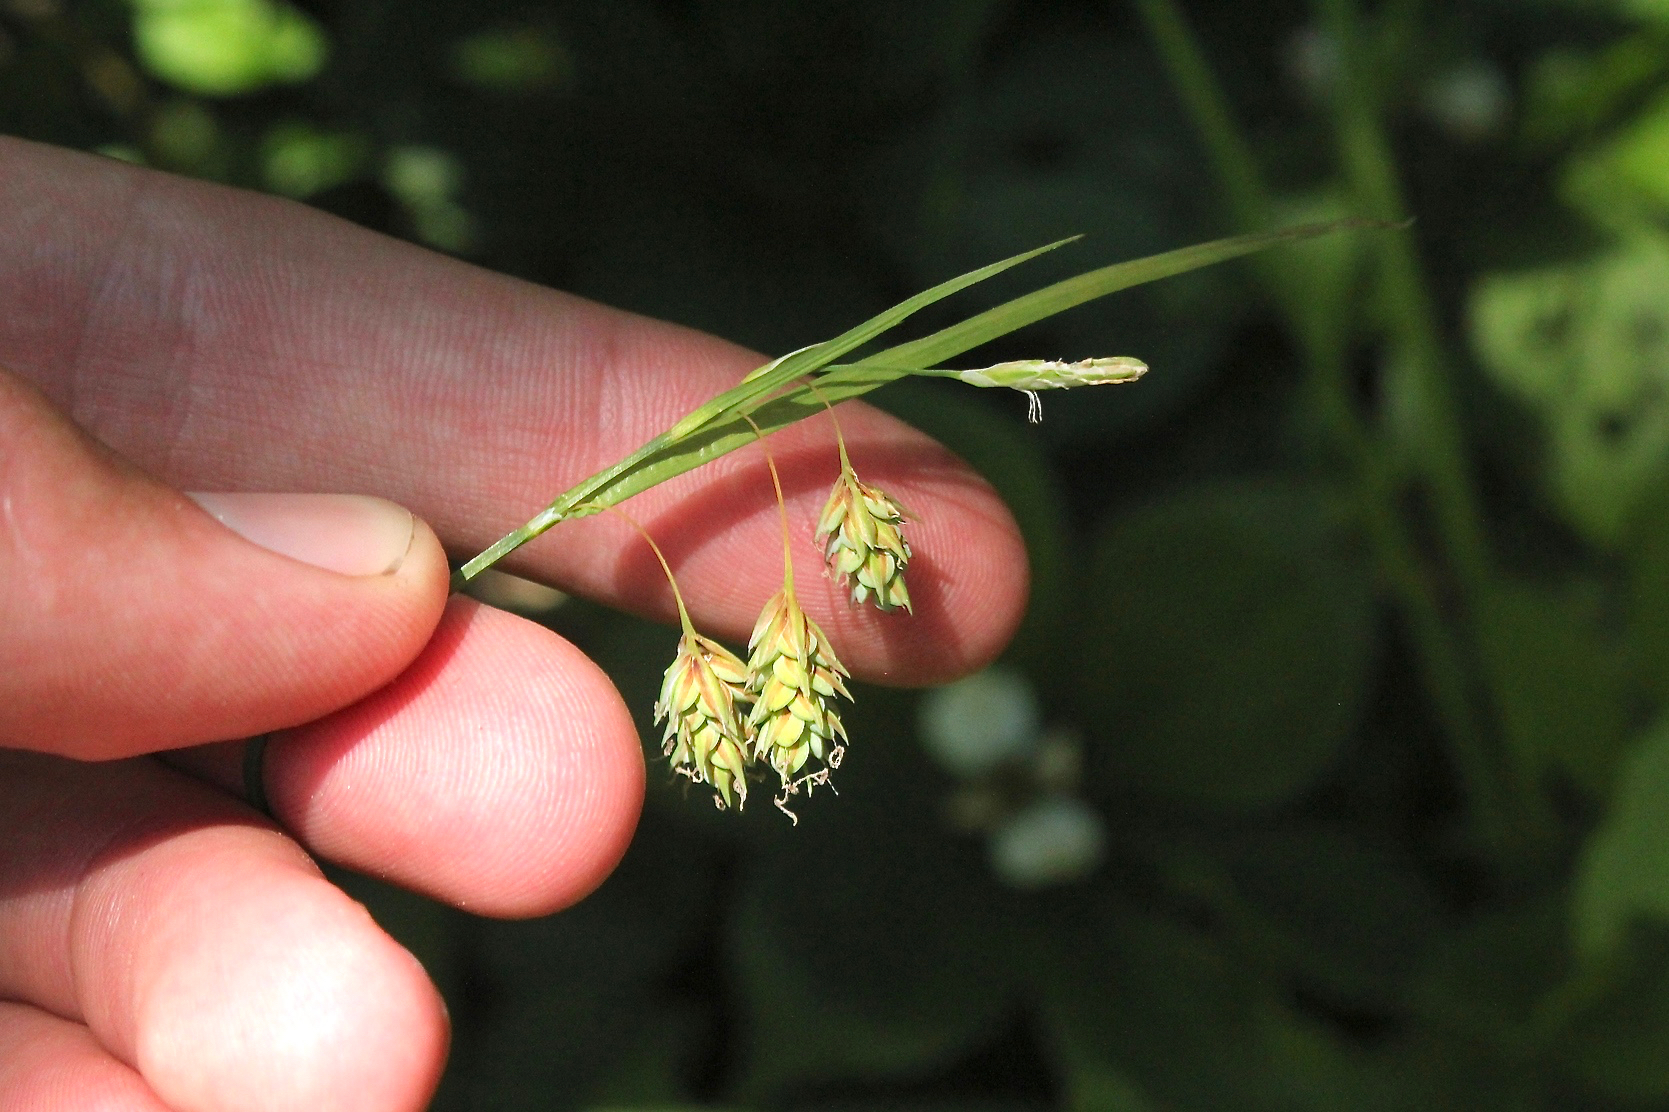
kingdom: Plantae
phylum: Tracheophyta
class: Liliopsida
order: Poales
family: Cyperaceae
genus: Carex
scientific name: Carex magellanica
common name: Bog sedge
